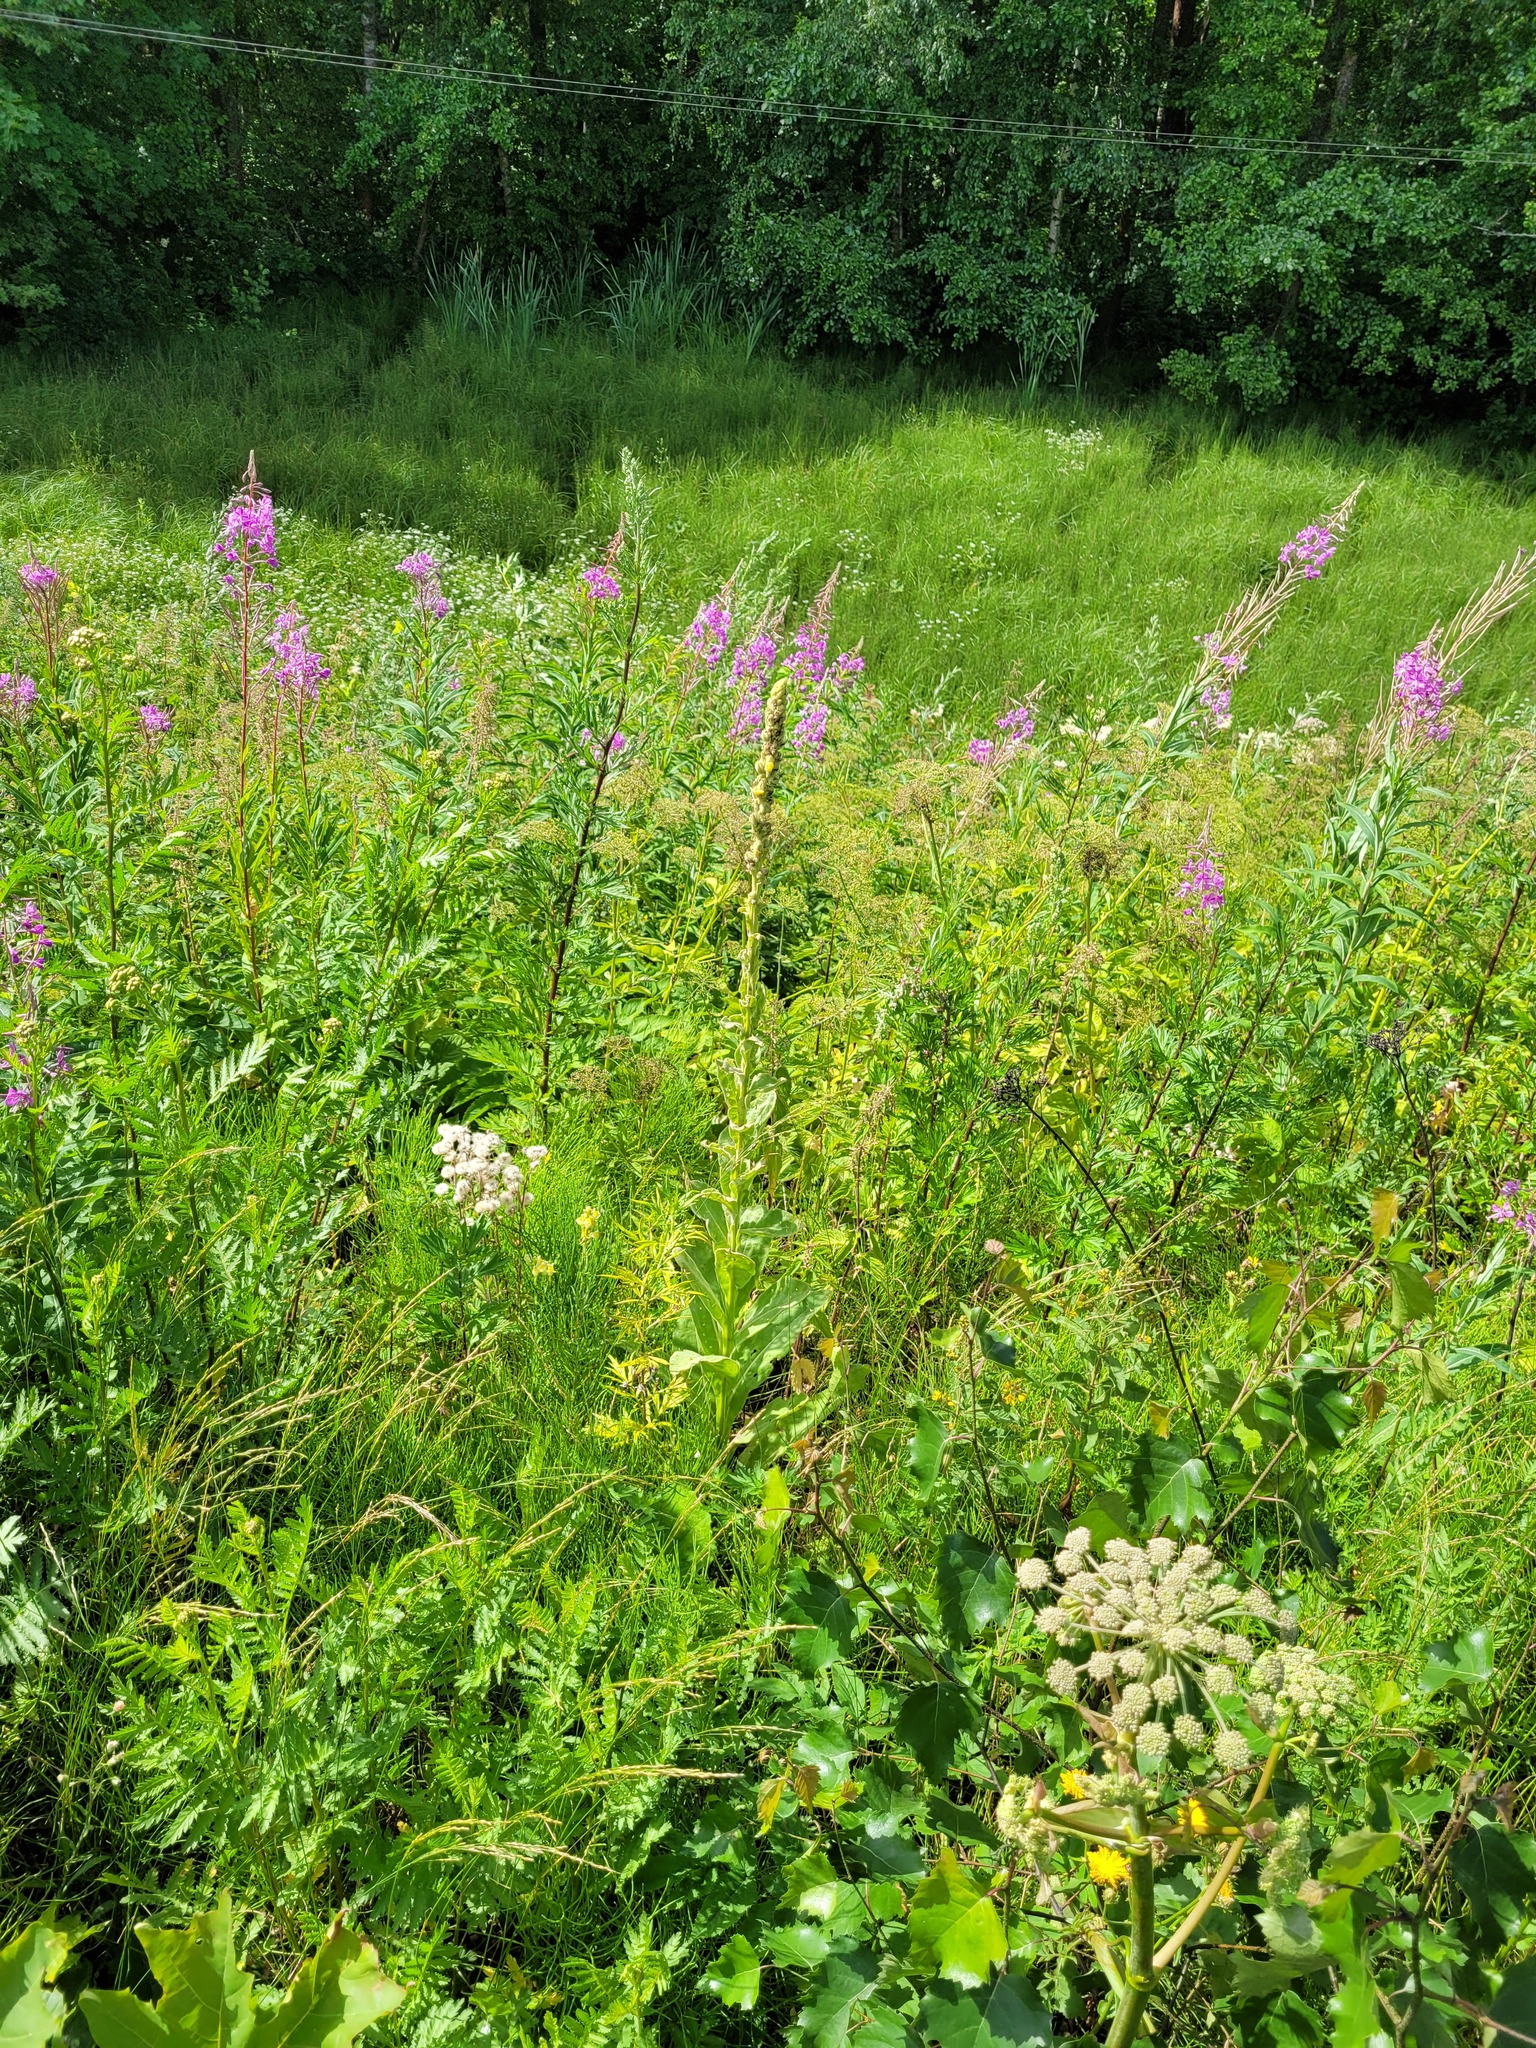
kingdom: Plantae
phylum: Tracheophyta
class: Magnoliopsida
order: Lamiales
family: Scrophulariaceae
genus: Verbascum
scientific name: Verbascum thapsus
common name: Common mullein
